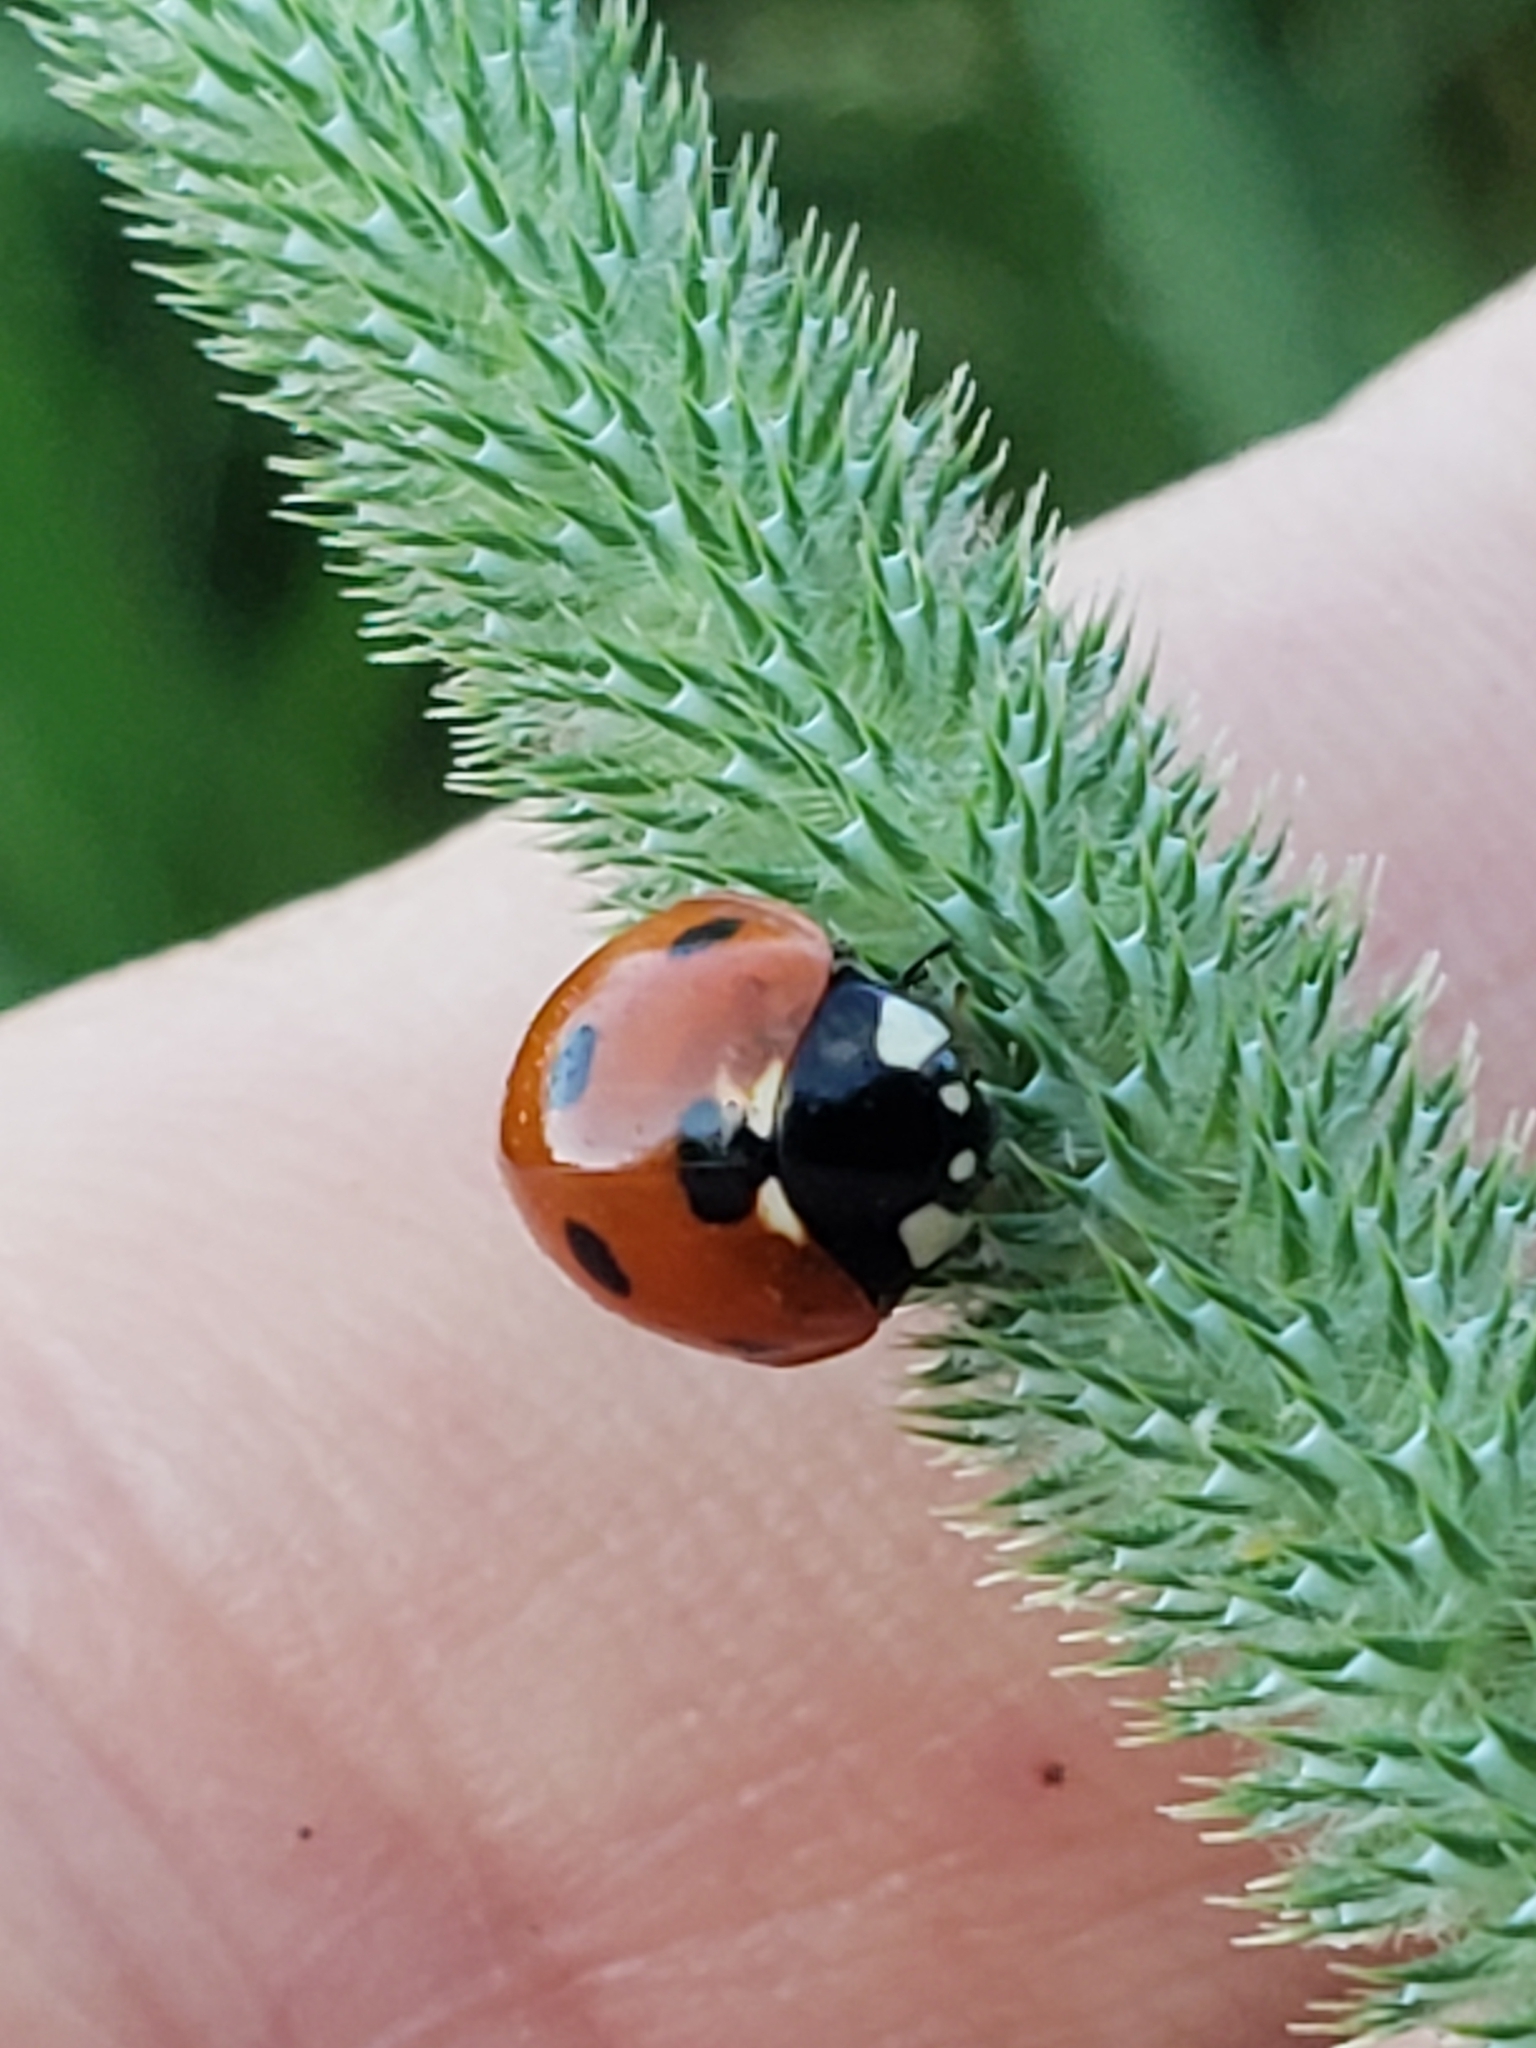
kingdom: Animalia
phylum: Arthropoda
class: Insecta
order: Coleoptera
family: Coccinellidae
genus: Coccinella
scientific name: Coccinella septempunctata
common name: Sevenspotted lady beetle
